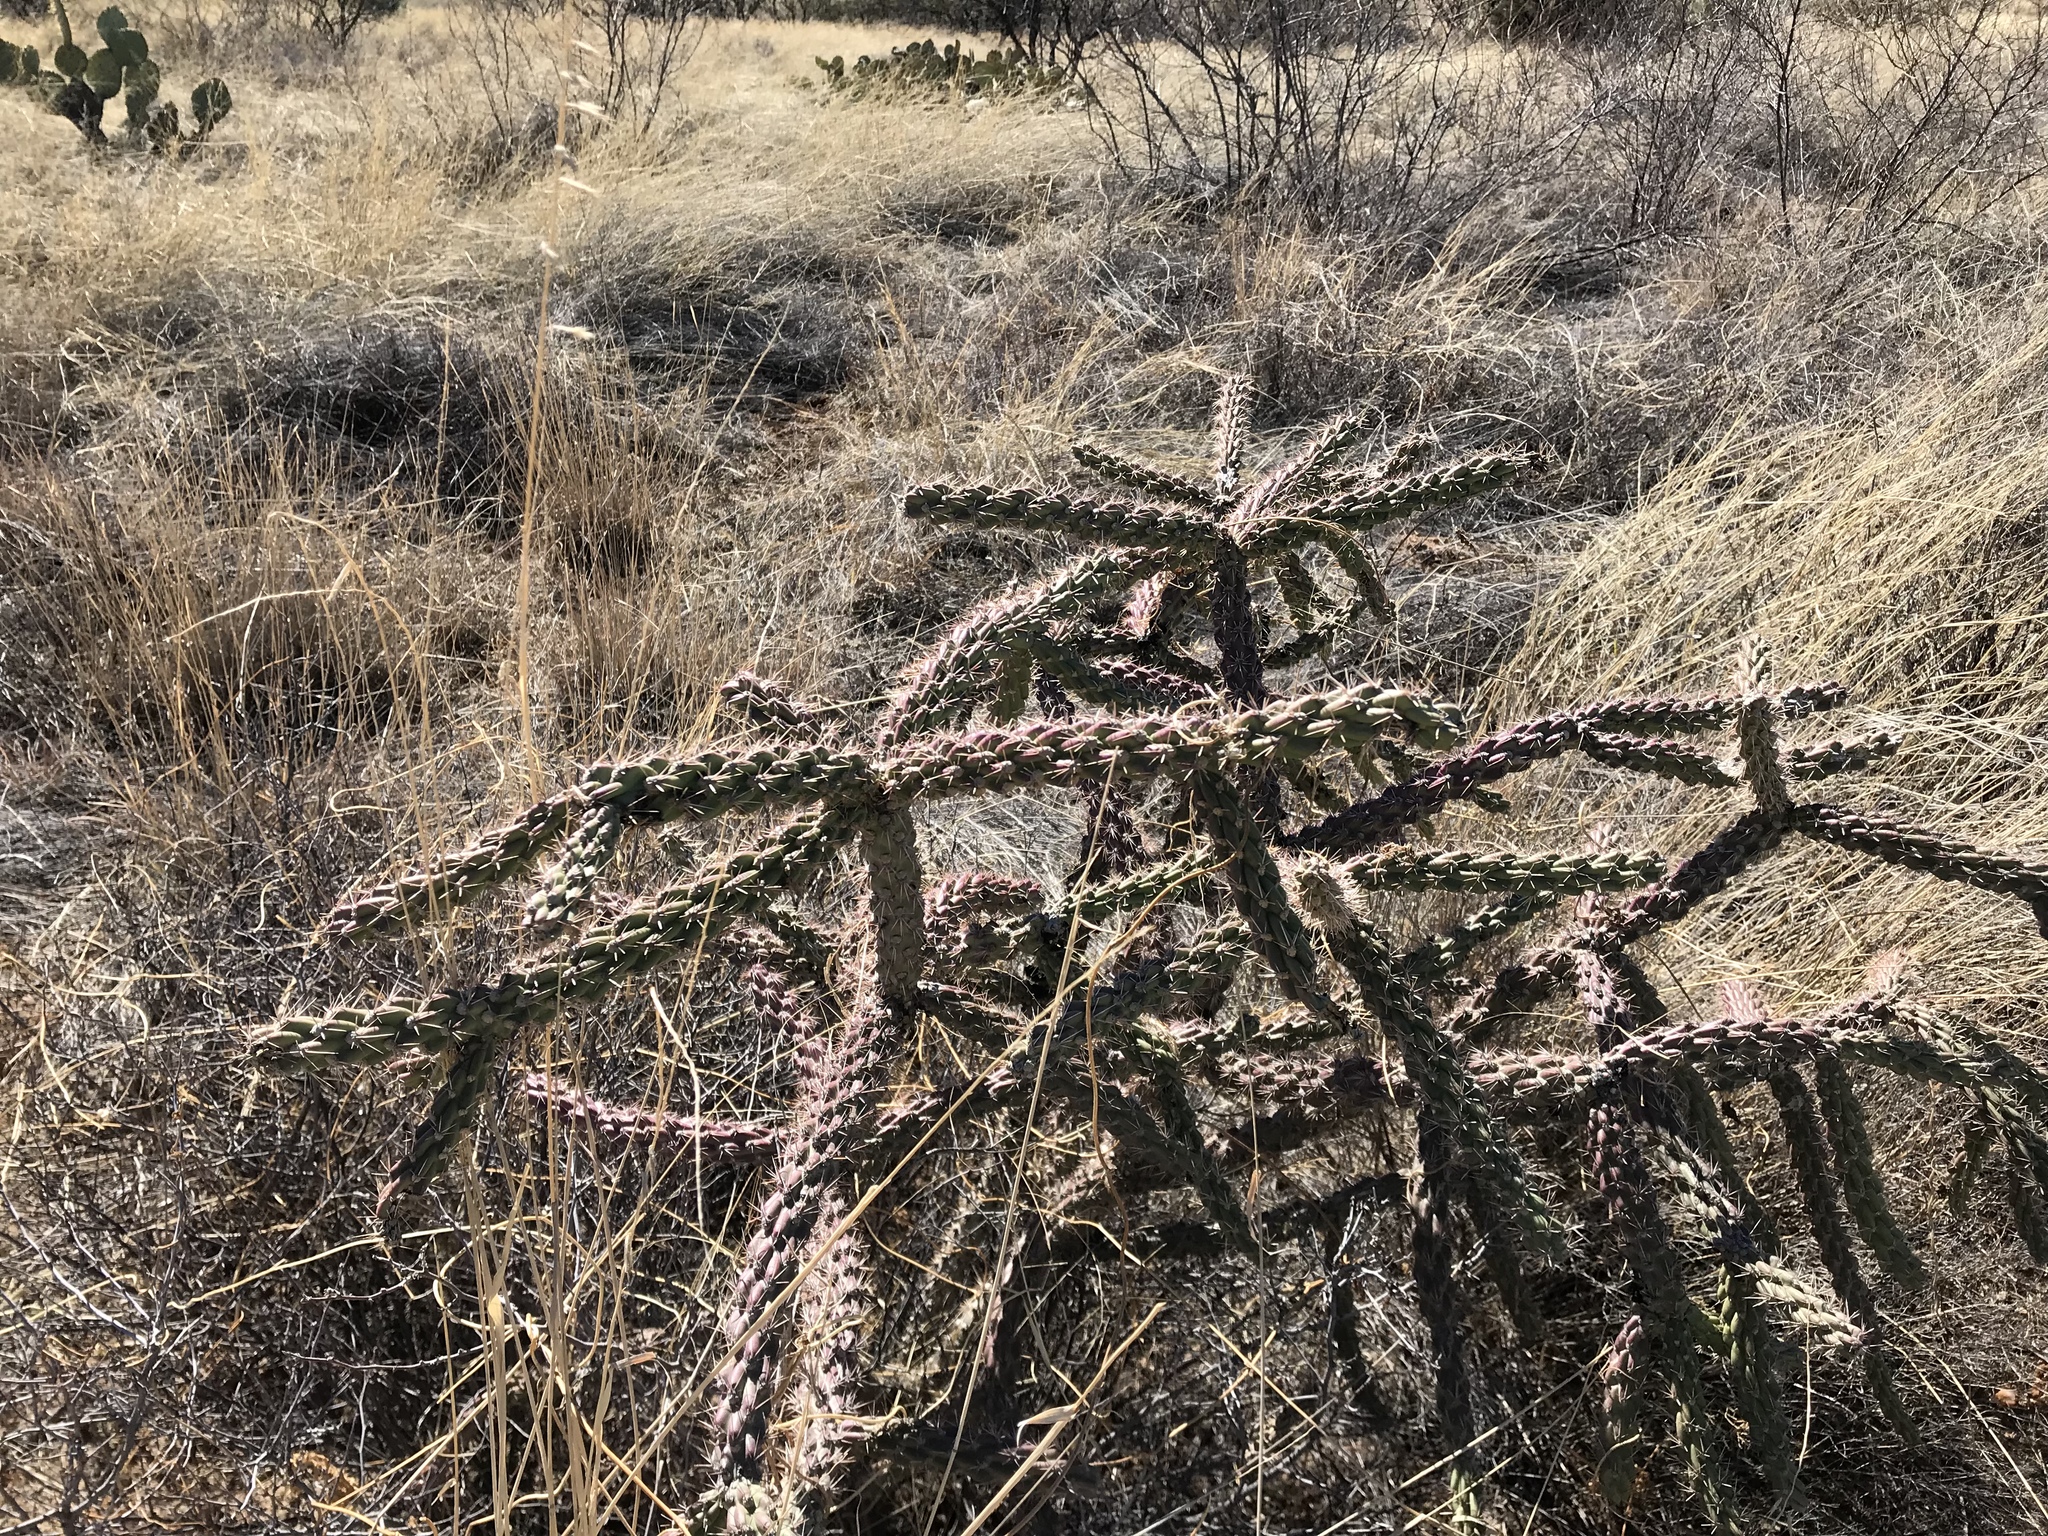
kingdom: Plantae
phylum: Tracheophyta
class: Magnoliopsida
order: Caryophyllales
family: Cactaceae
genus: Cylindropuntia
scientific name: Cylindropuntia imbricata
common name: Candelabrum cactus
